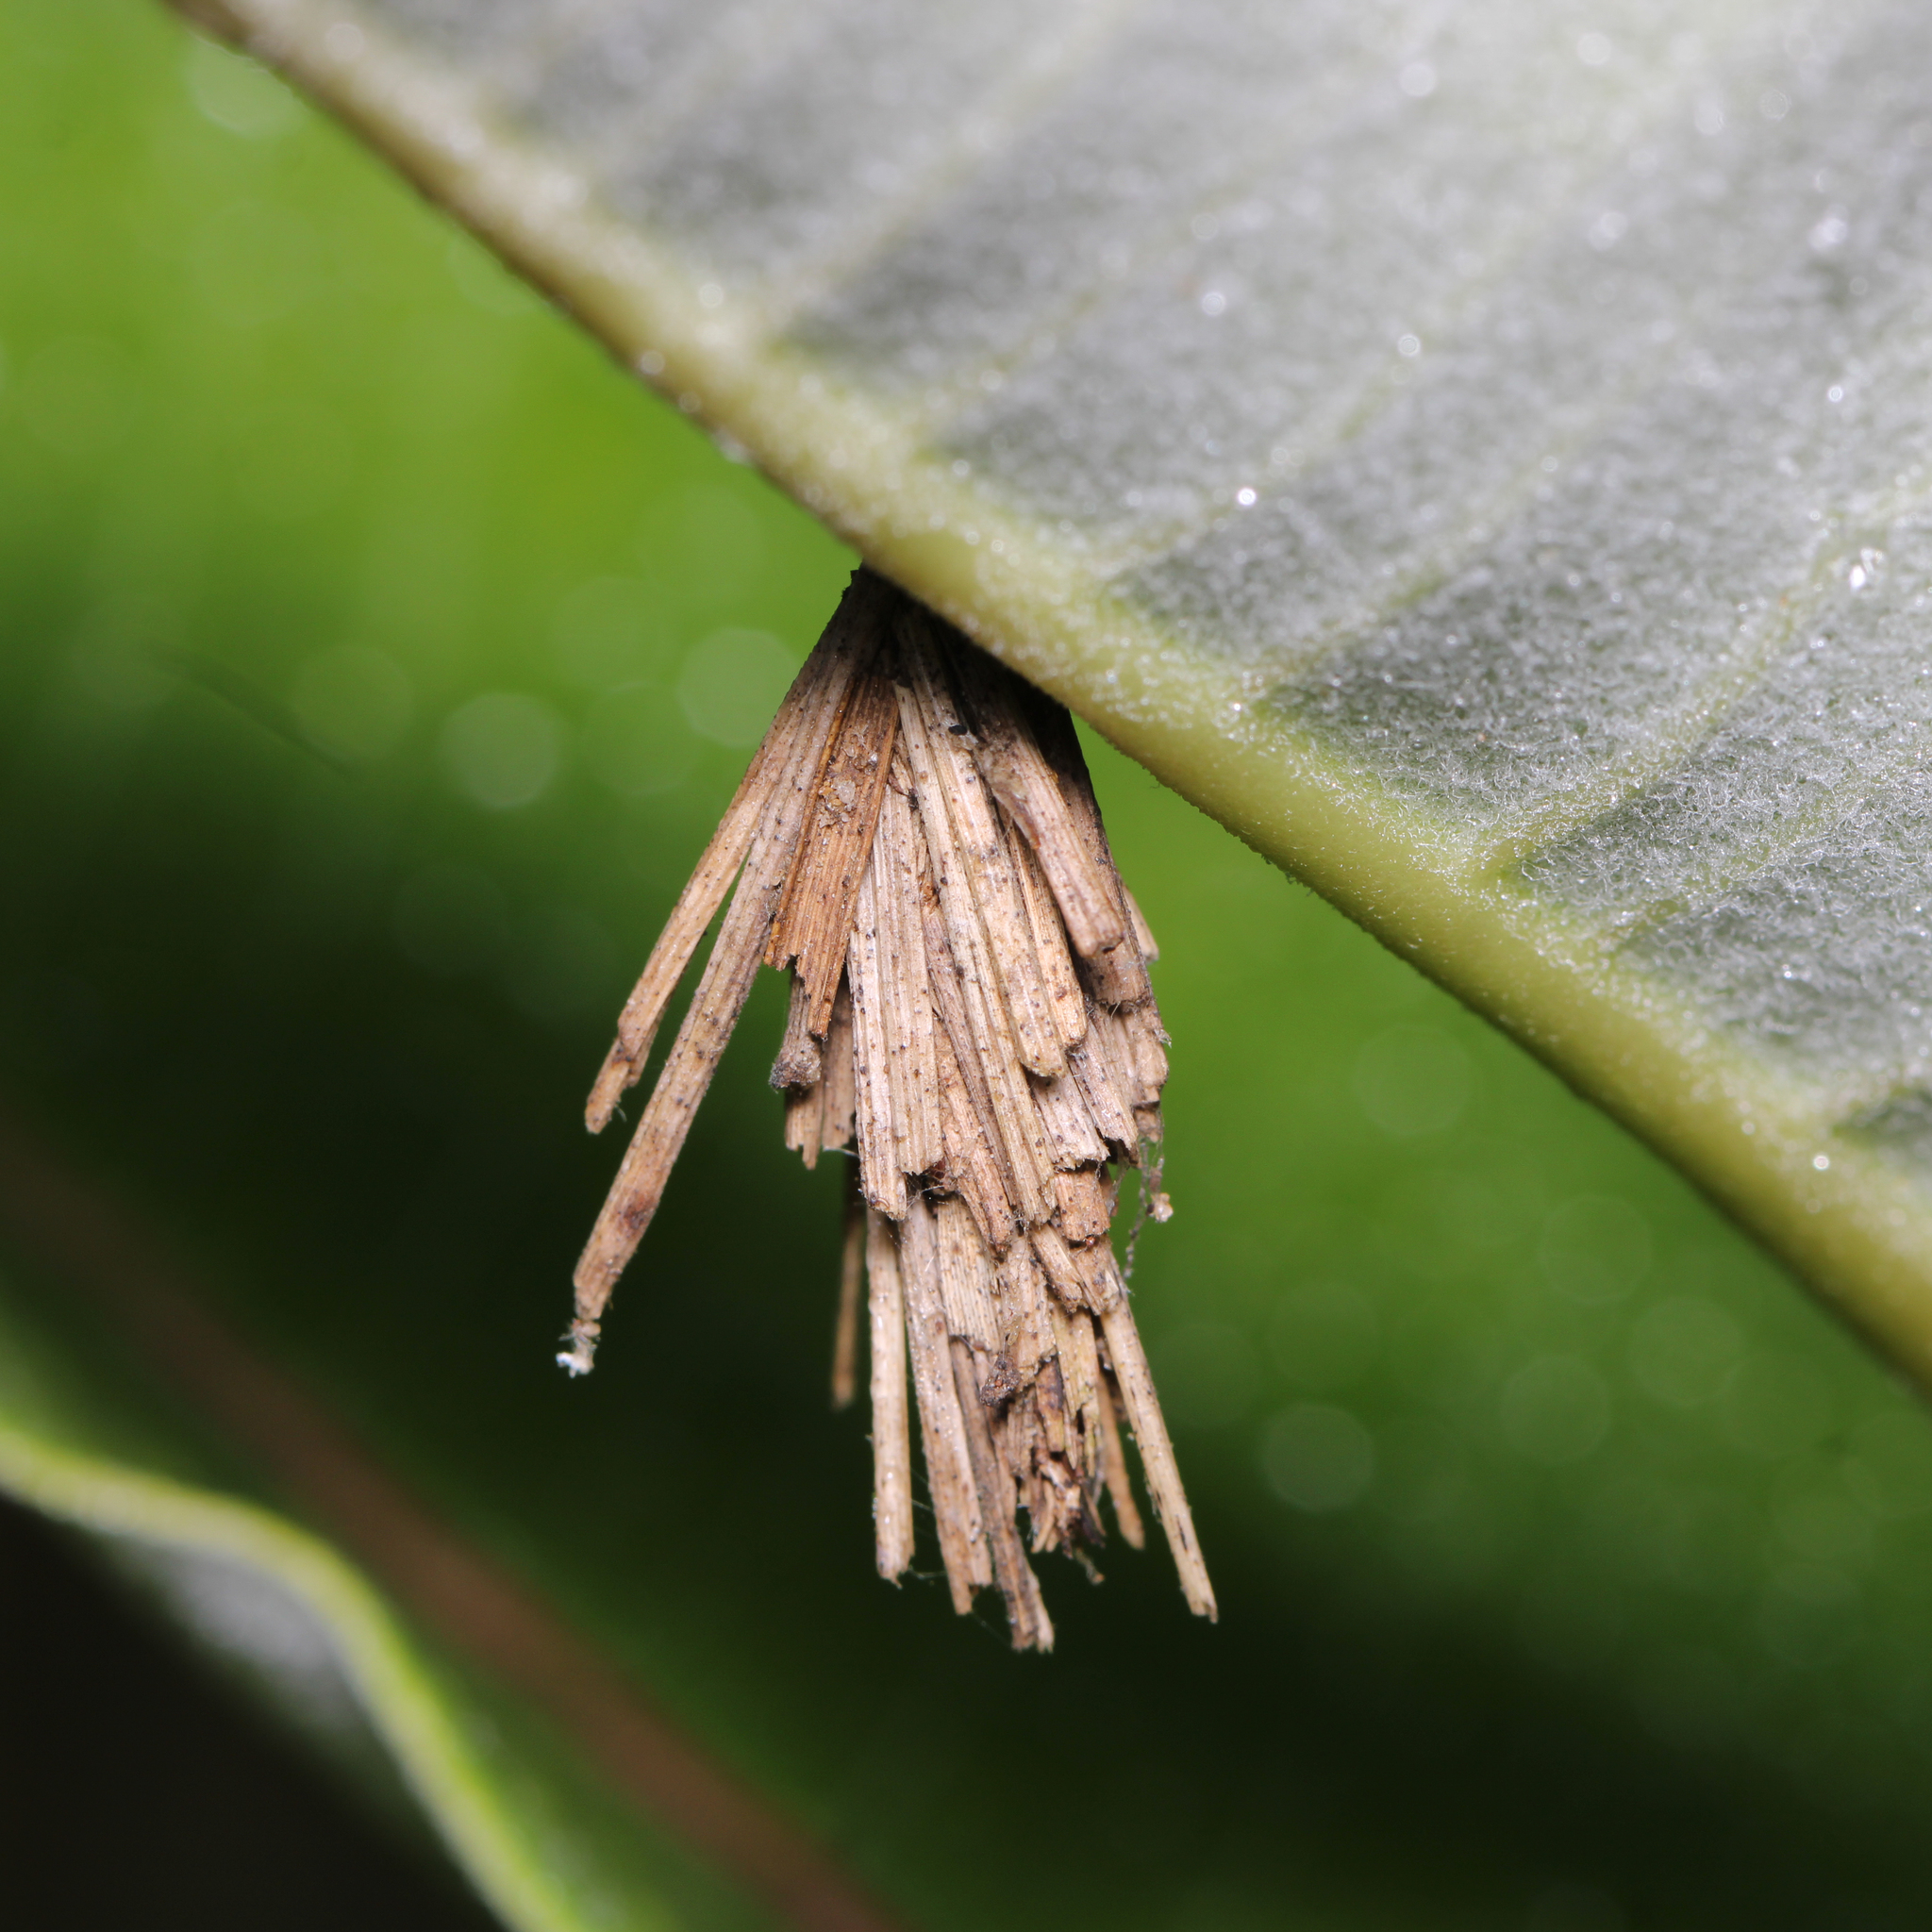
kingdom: Animalia
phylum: Arthropoda
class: Insecta
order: Lepidoptera
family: Psychidae
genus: Psyche
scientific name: Psyche casta
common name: Common sweep
